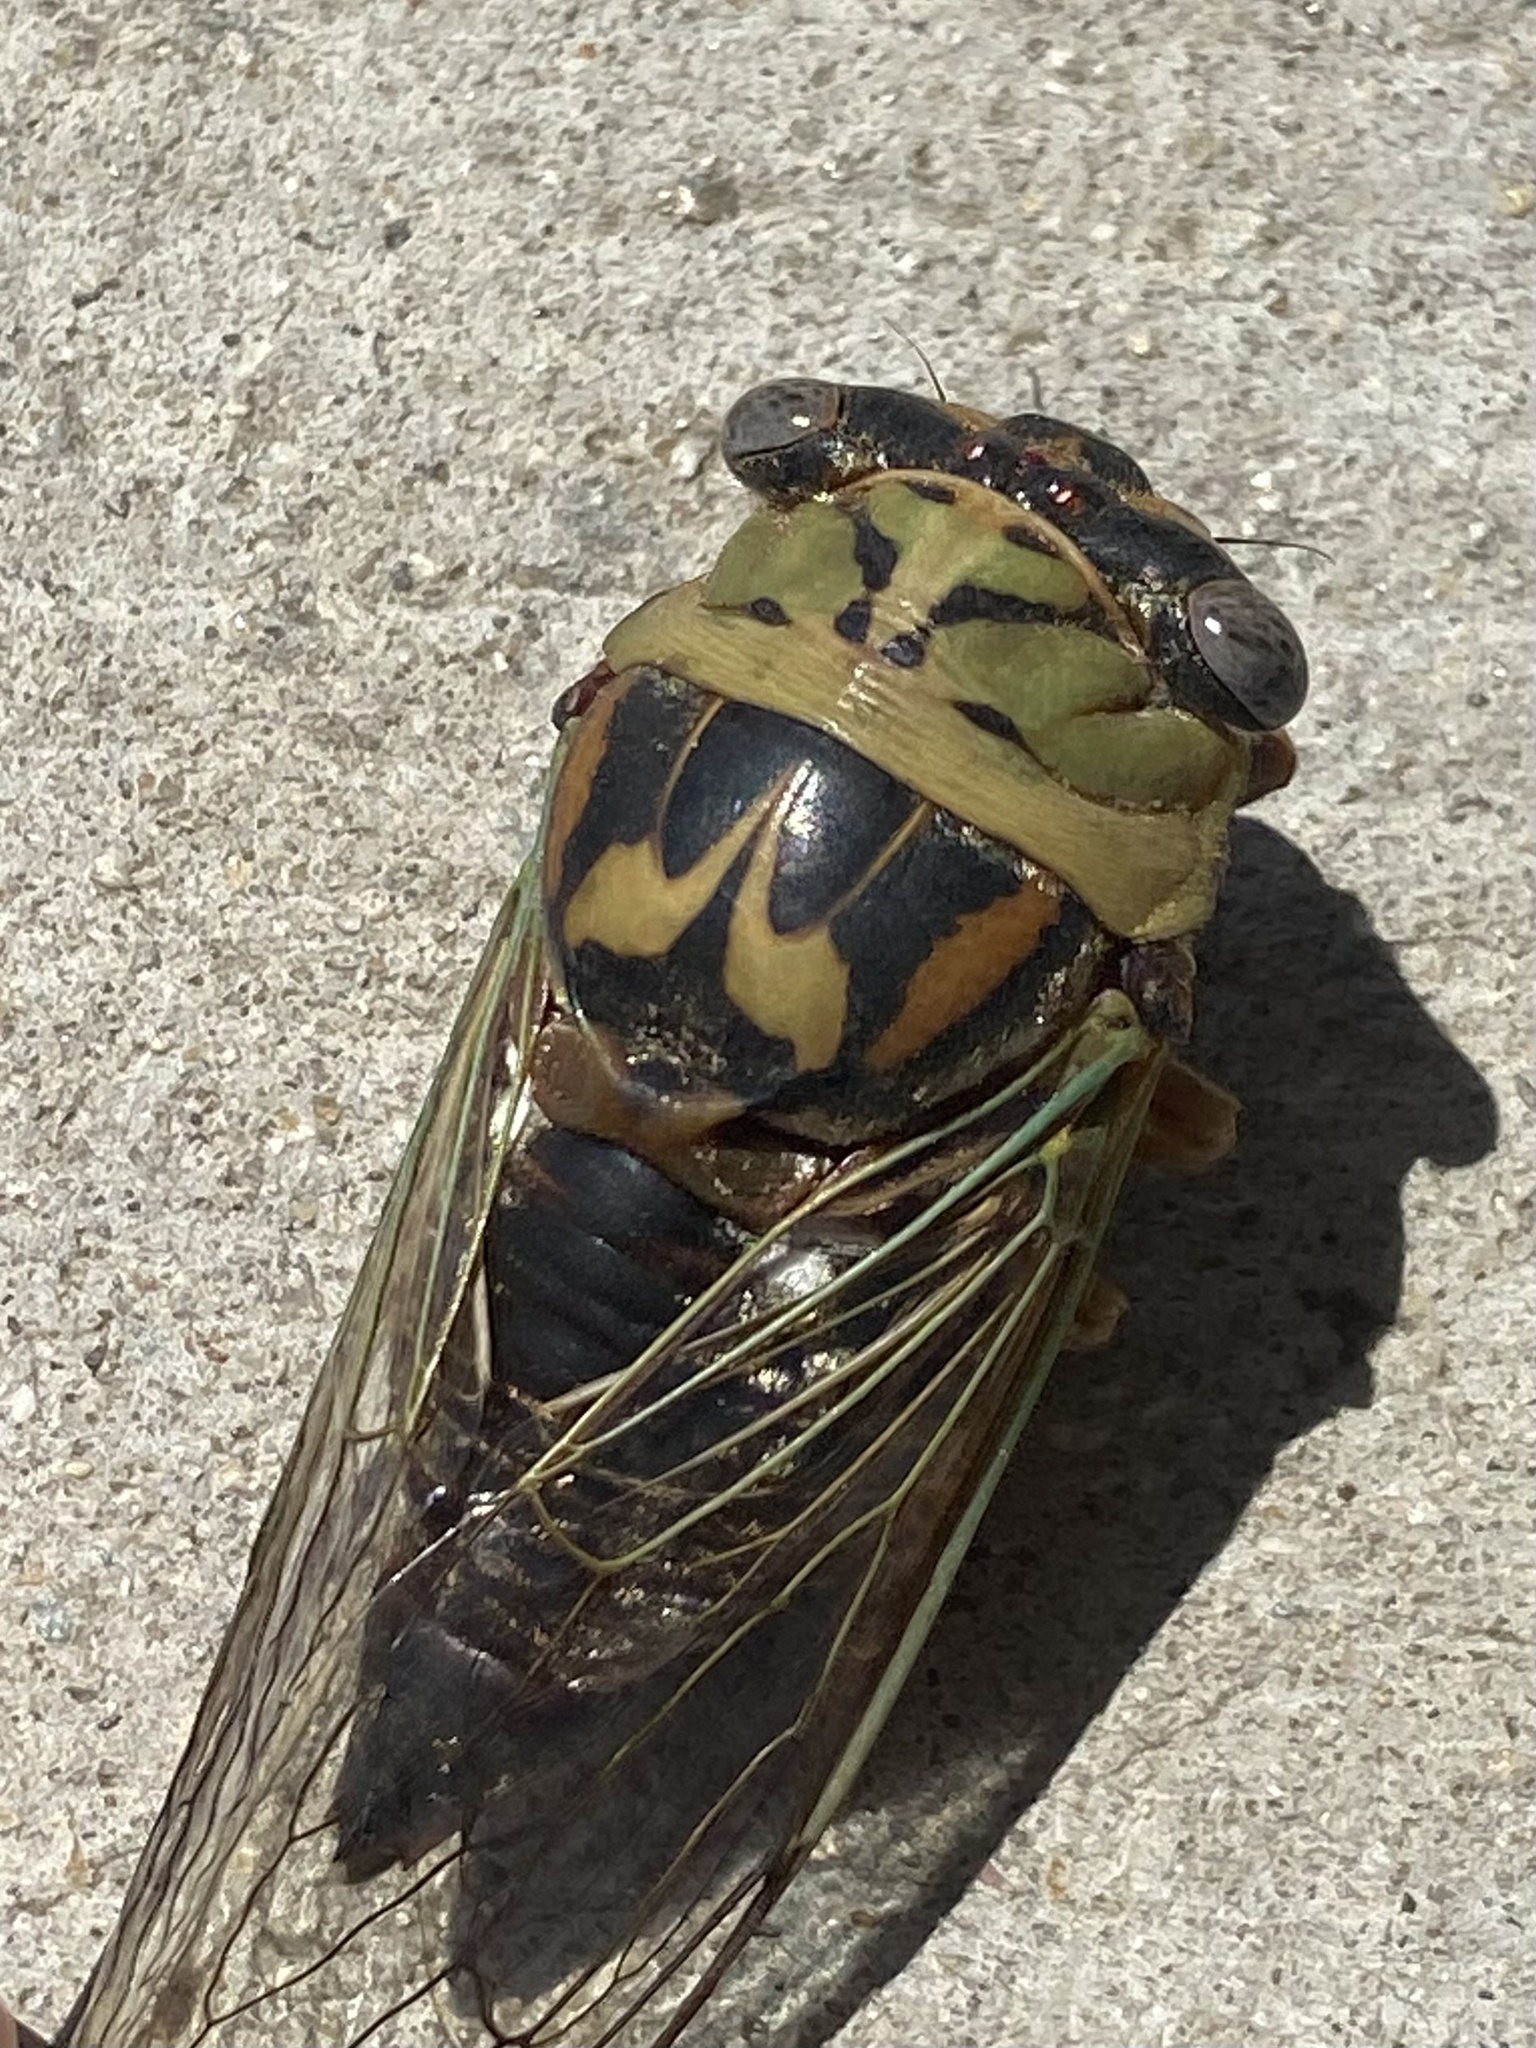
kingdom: Animalia
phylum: Arthropoda
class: Insecta
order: Hemiptera
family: Cicadidae
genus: Megatibicen
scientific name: Megatibicen resh
